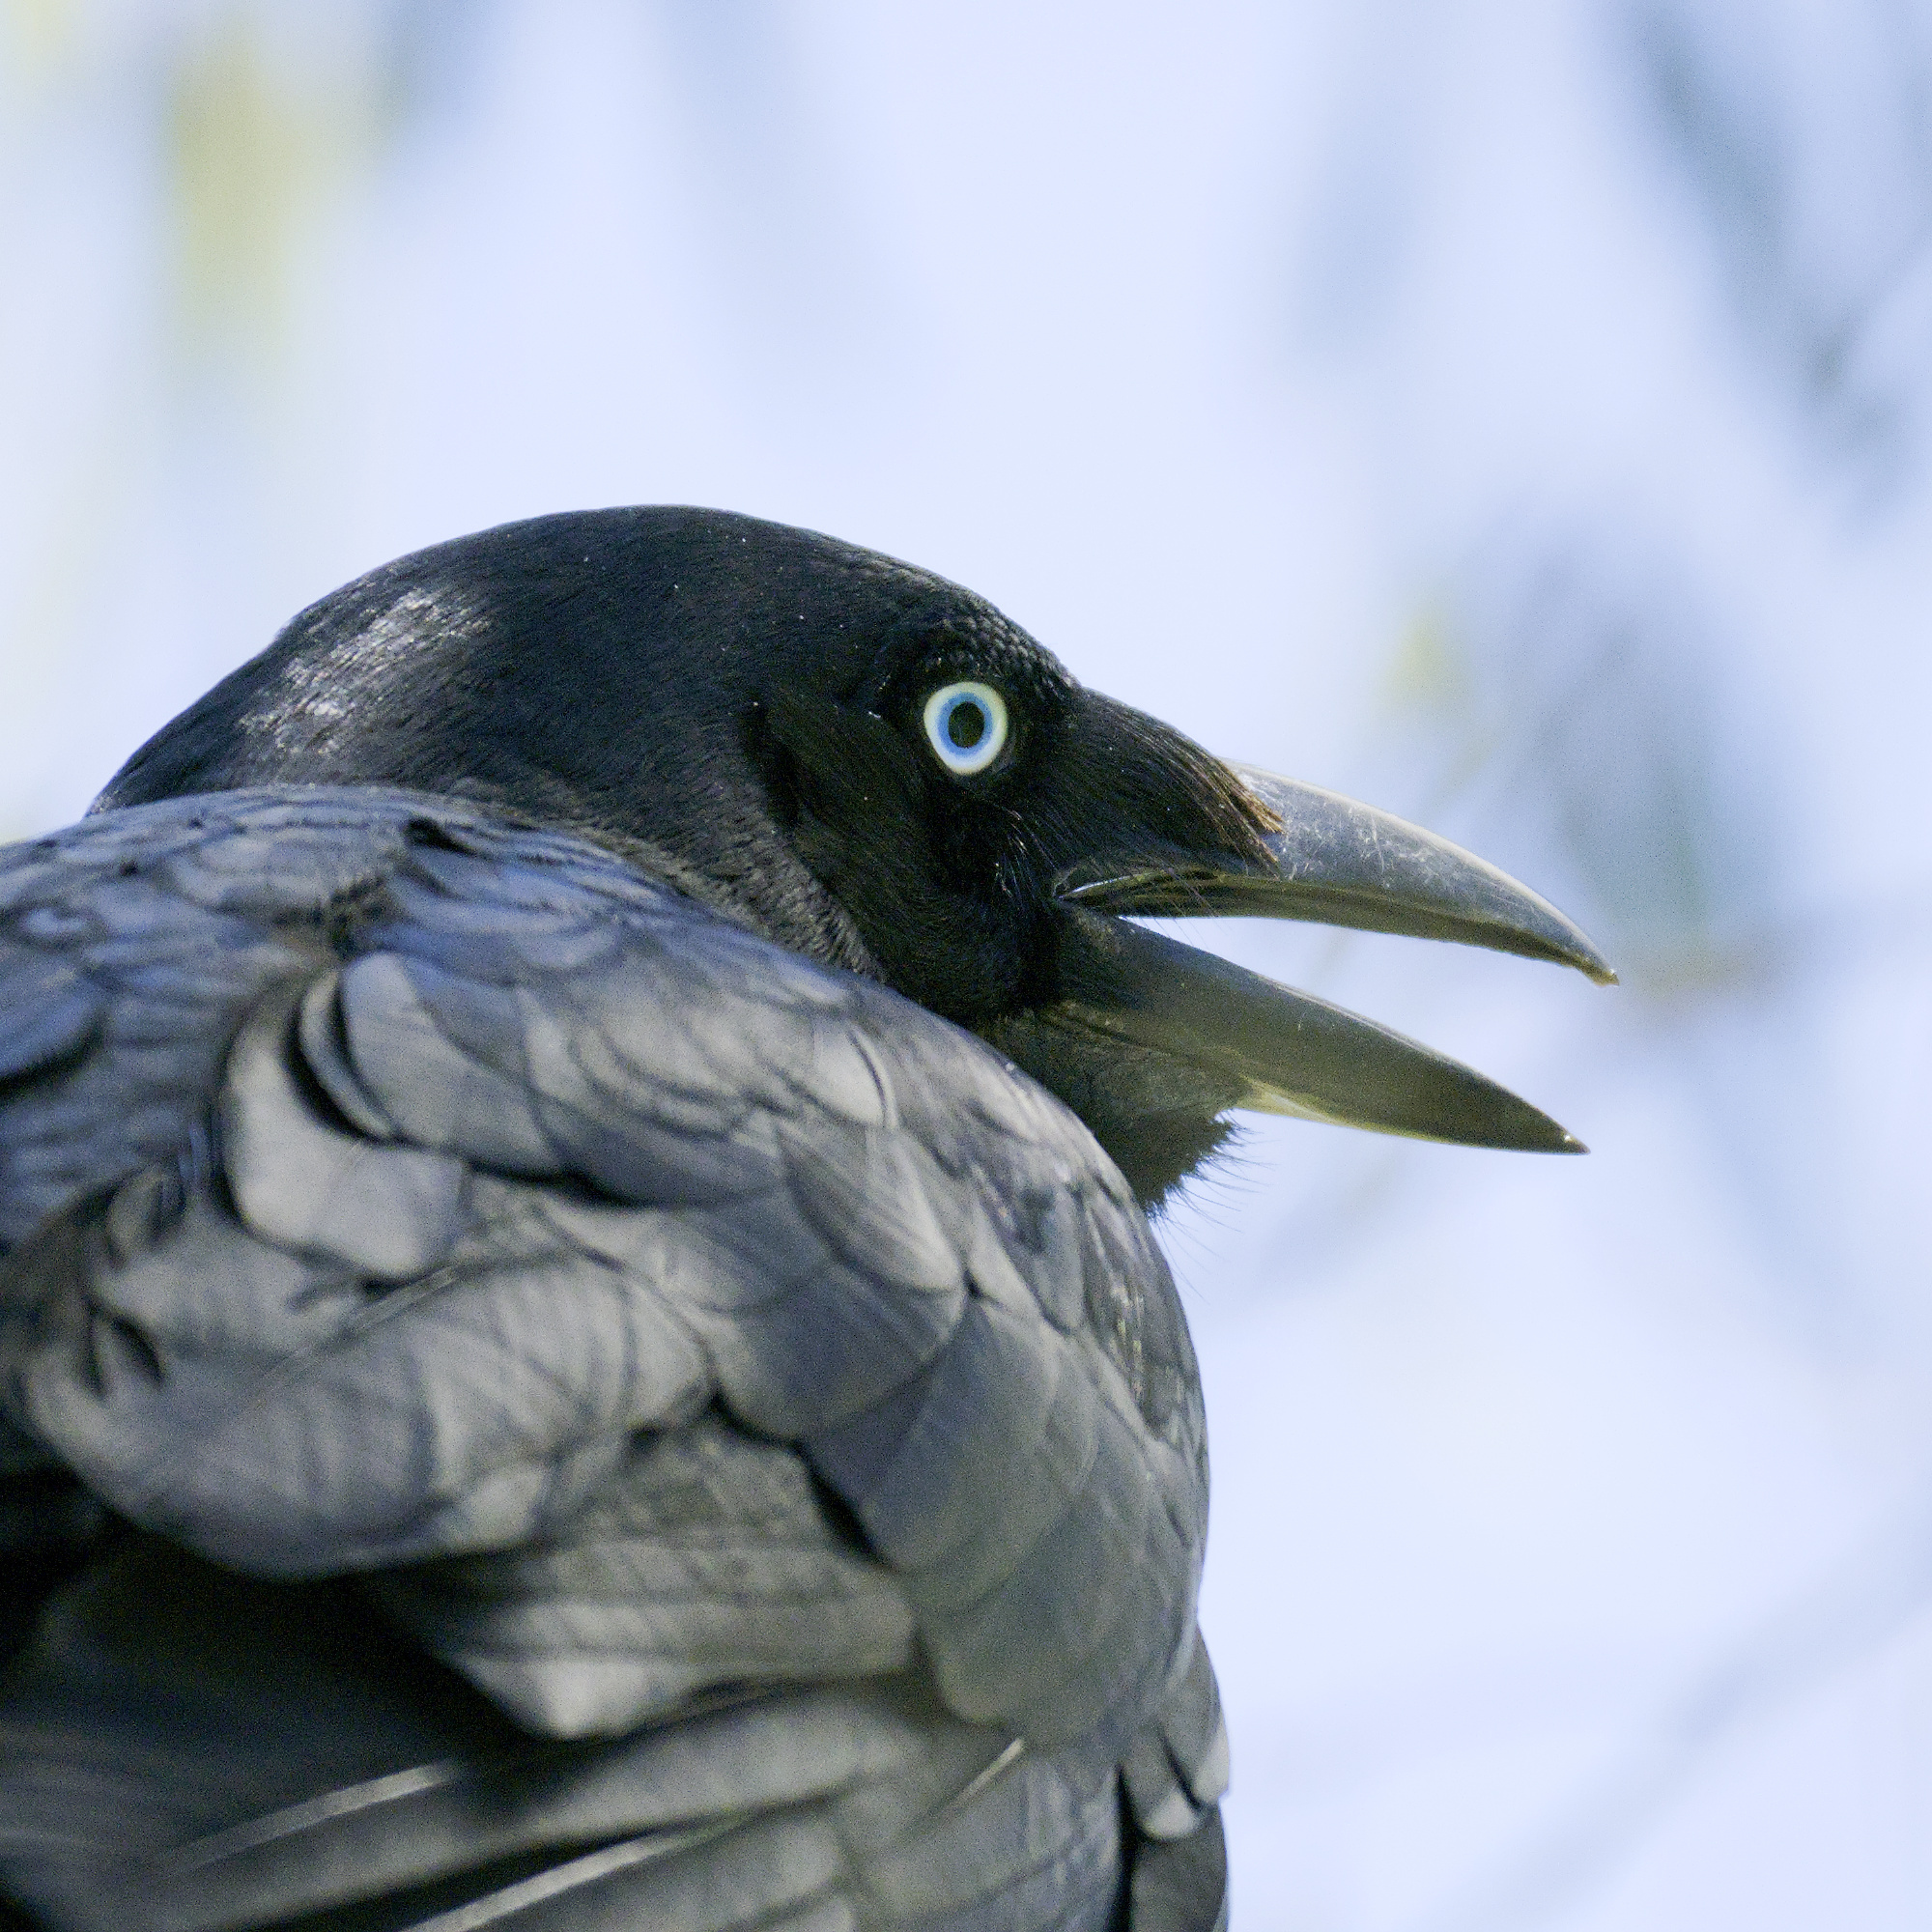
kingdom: Animalia
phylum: Chordata
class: Aves
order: Passeriformes
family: Corvidae
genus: Corvus
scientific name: Corvus mellori
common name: Little raven
